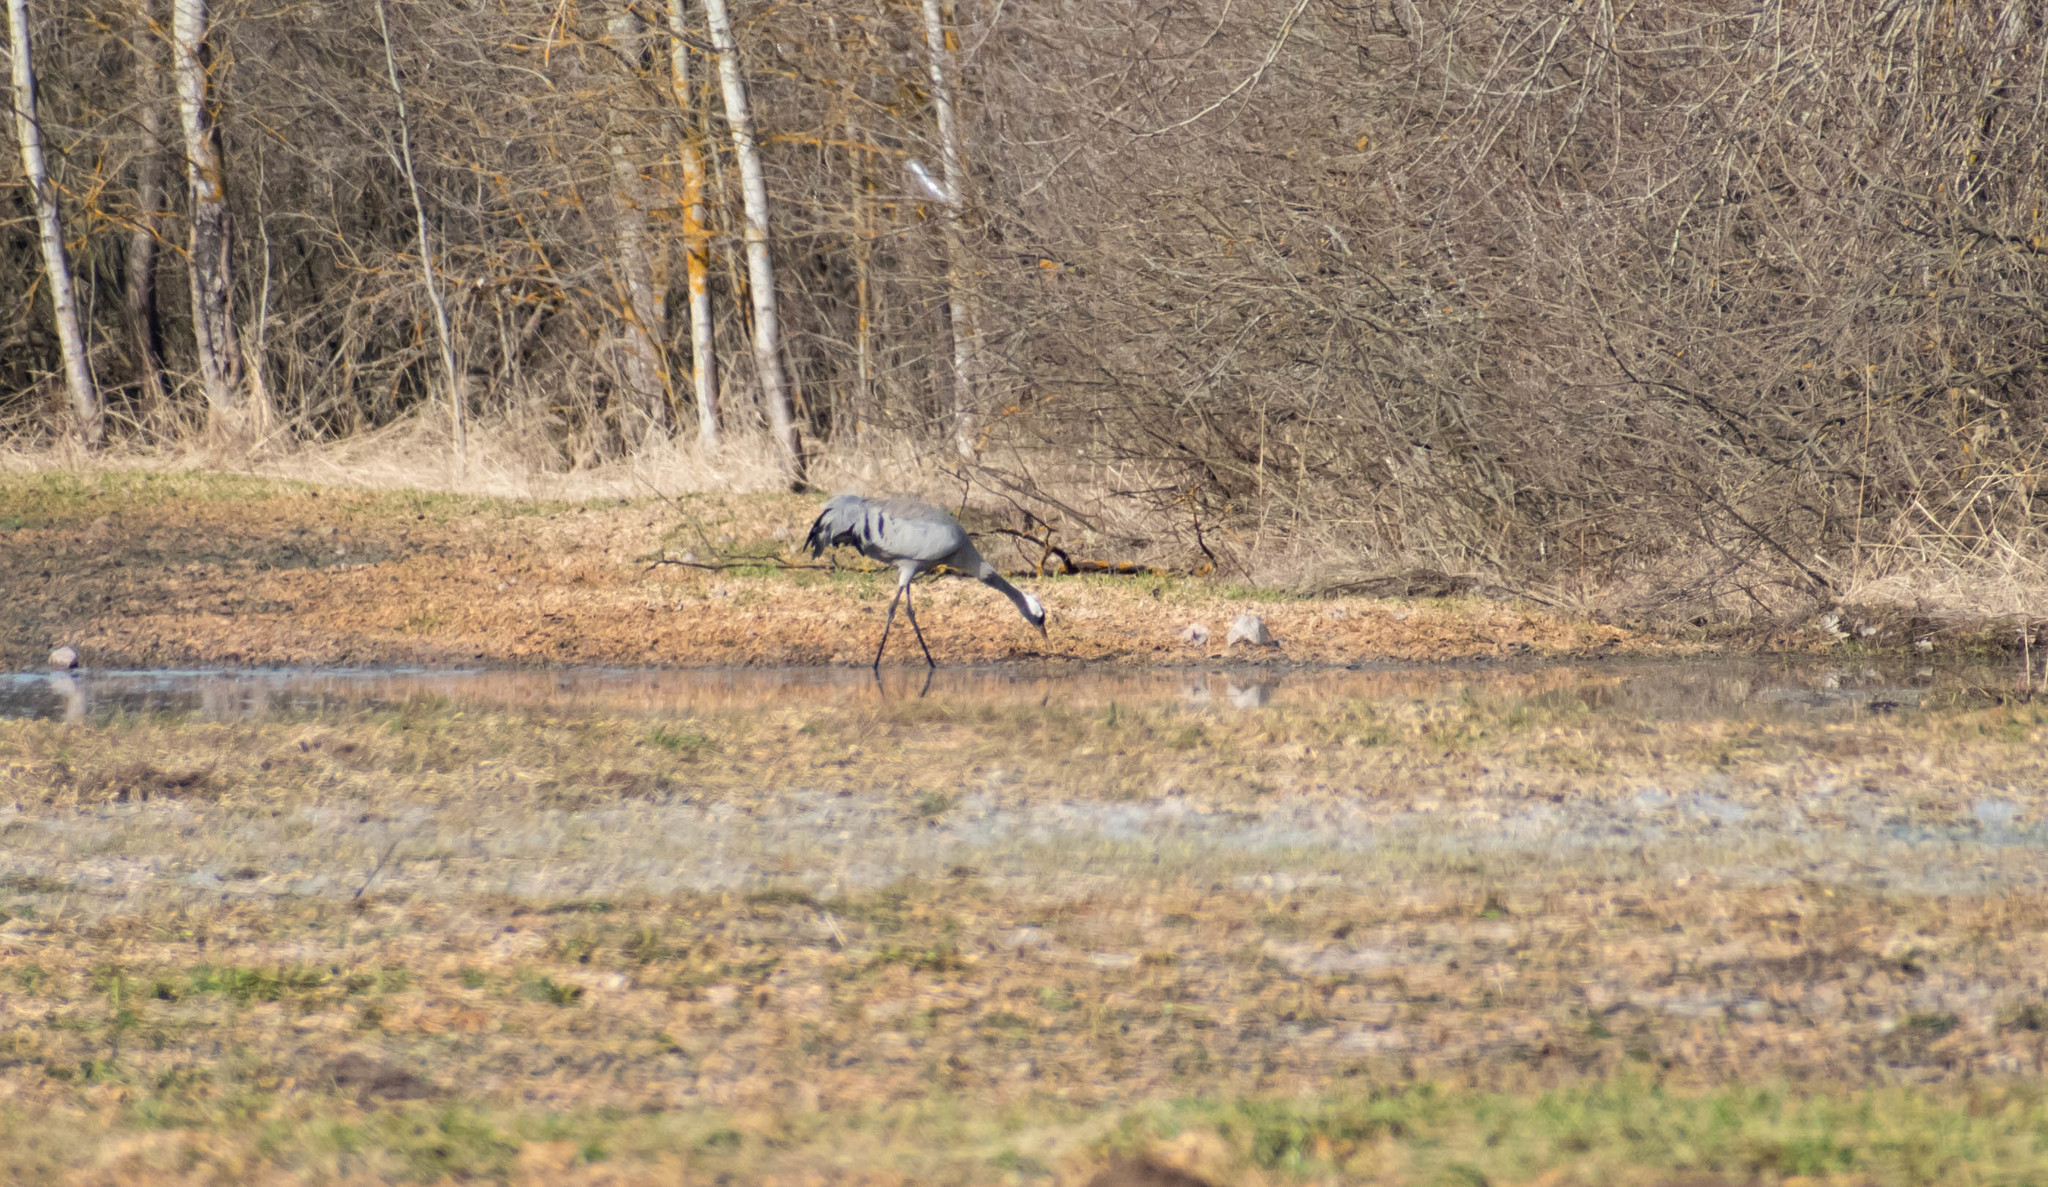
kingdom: Animalia
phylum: Chordata
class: Aves
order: Gruiformes
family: Gruidae
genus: Grus
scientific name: Grus grus
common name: Common crane
